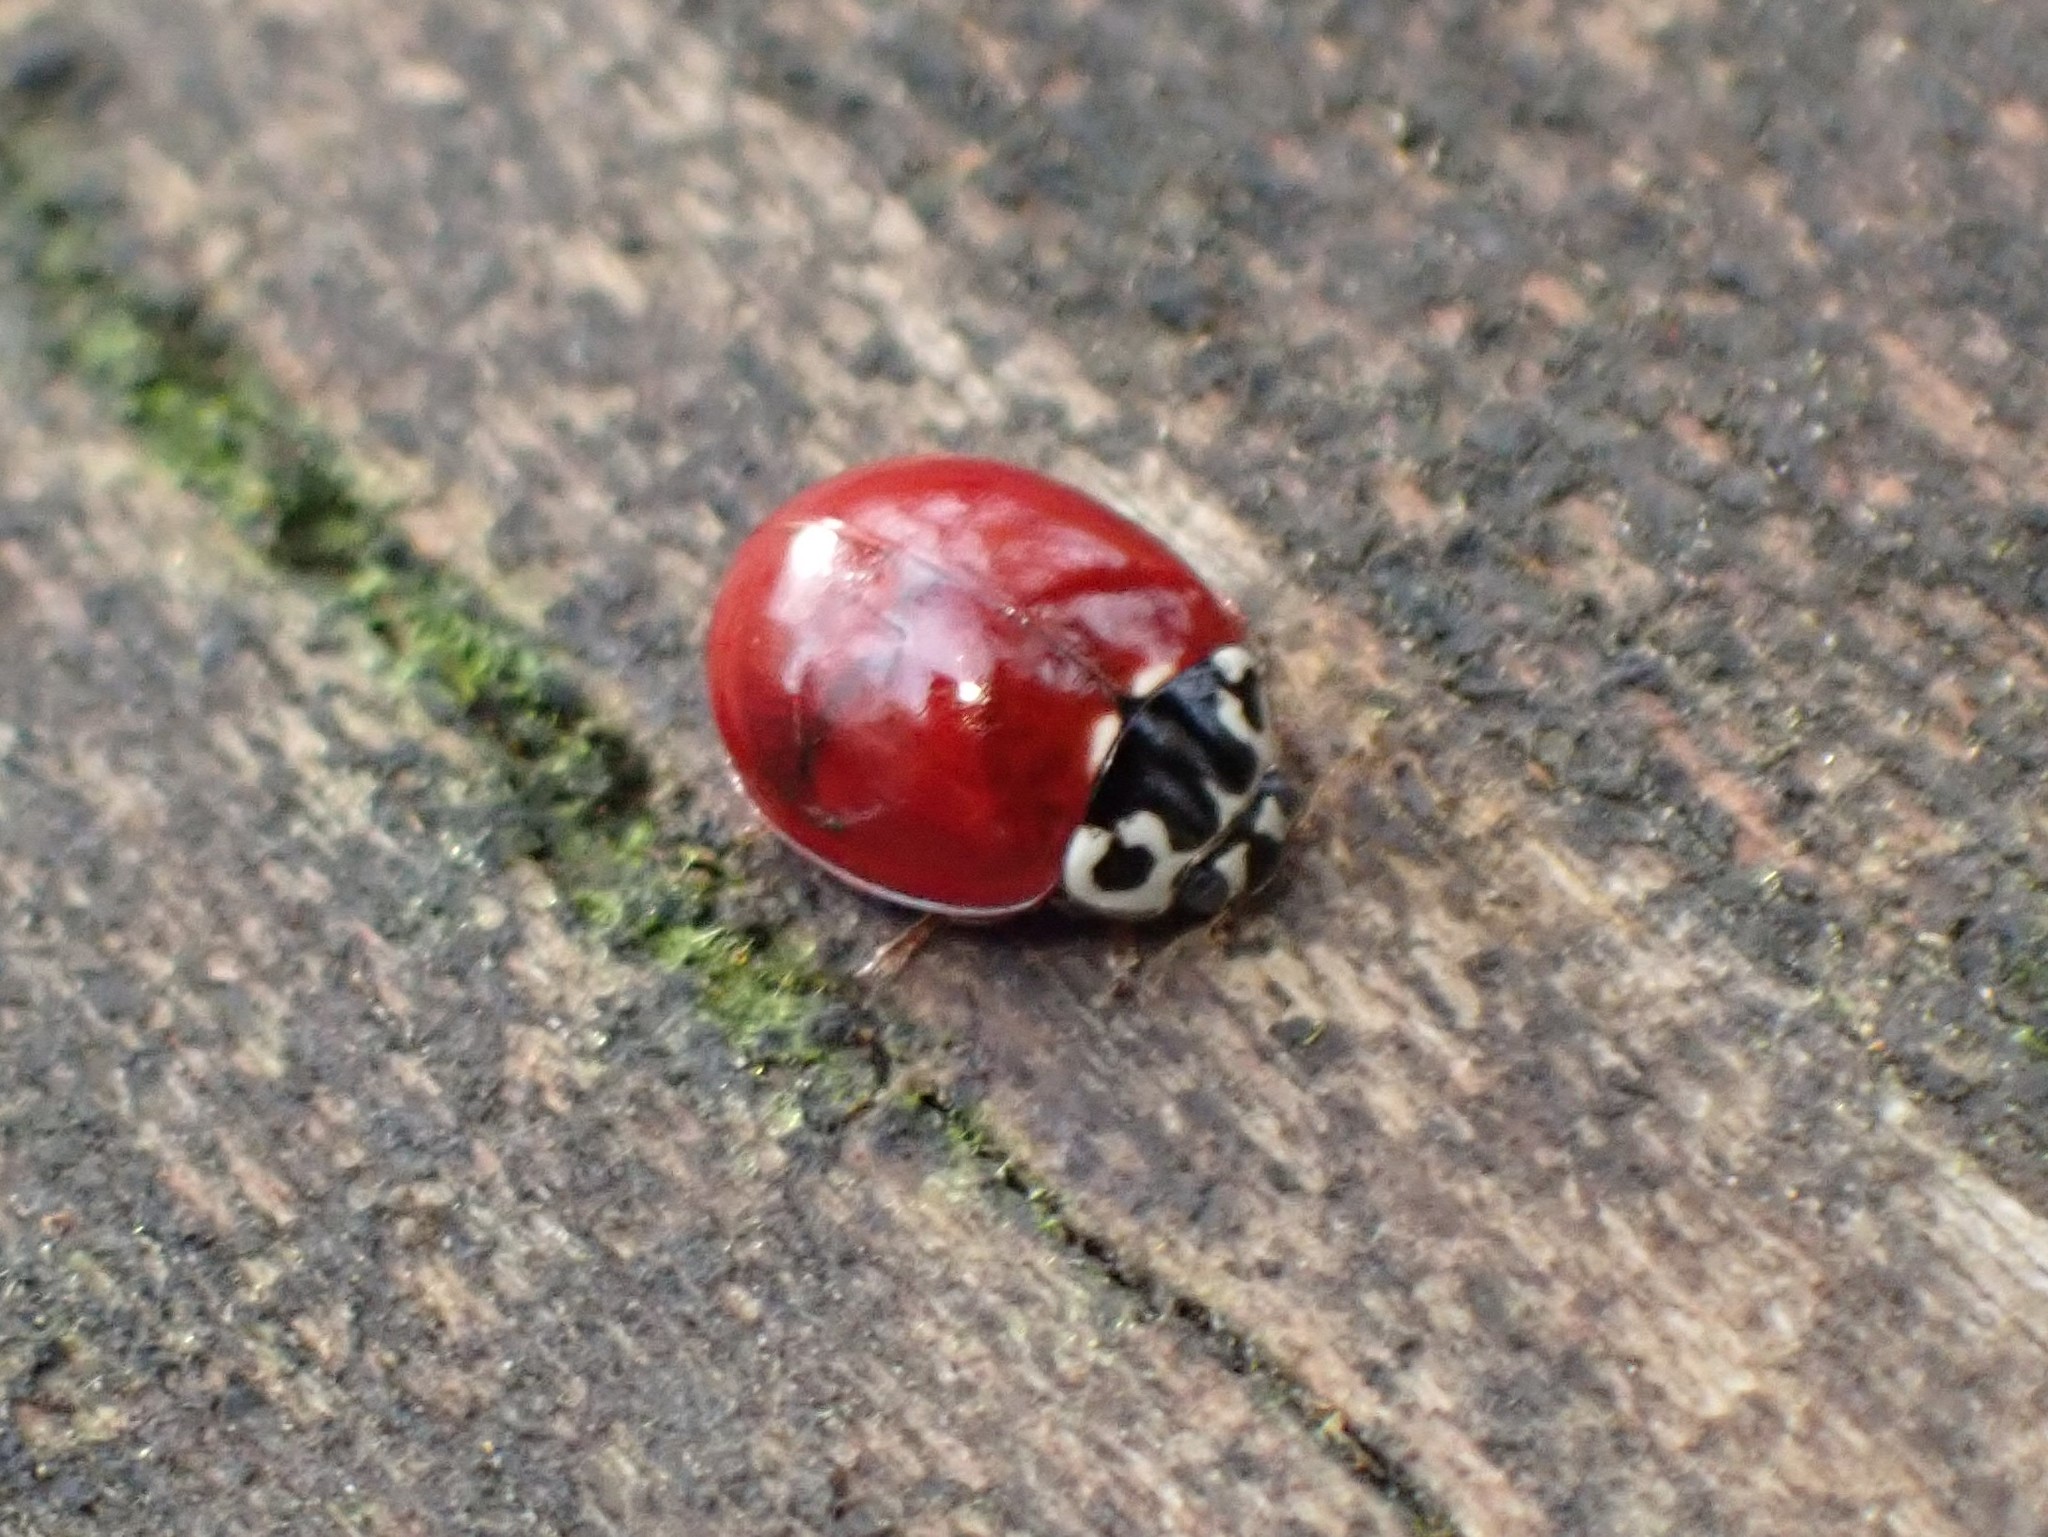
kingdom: Animalia
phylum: Arthropoda
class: Insecta
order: Coleoptera
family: Coccinellidae
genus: Cycloneda
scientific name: Cycloneda polita
